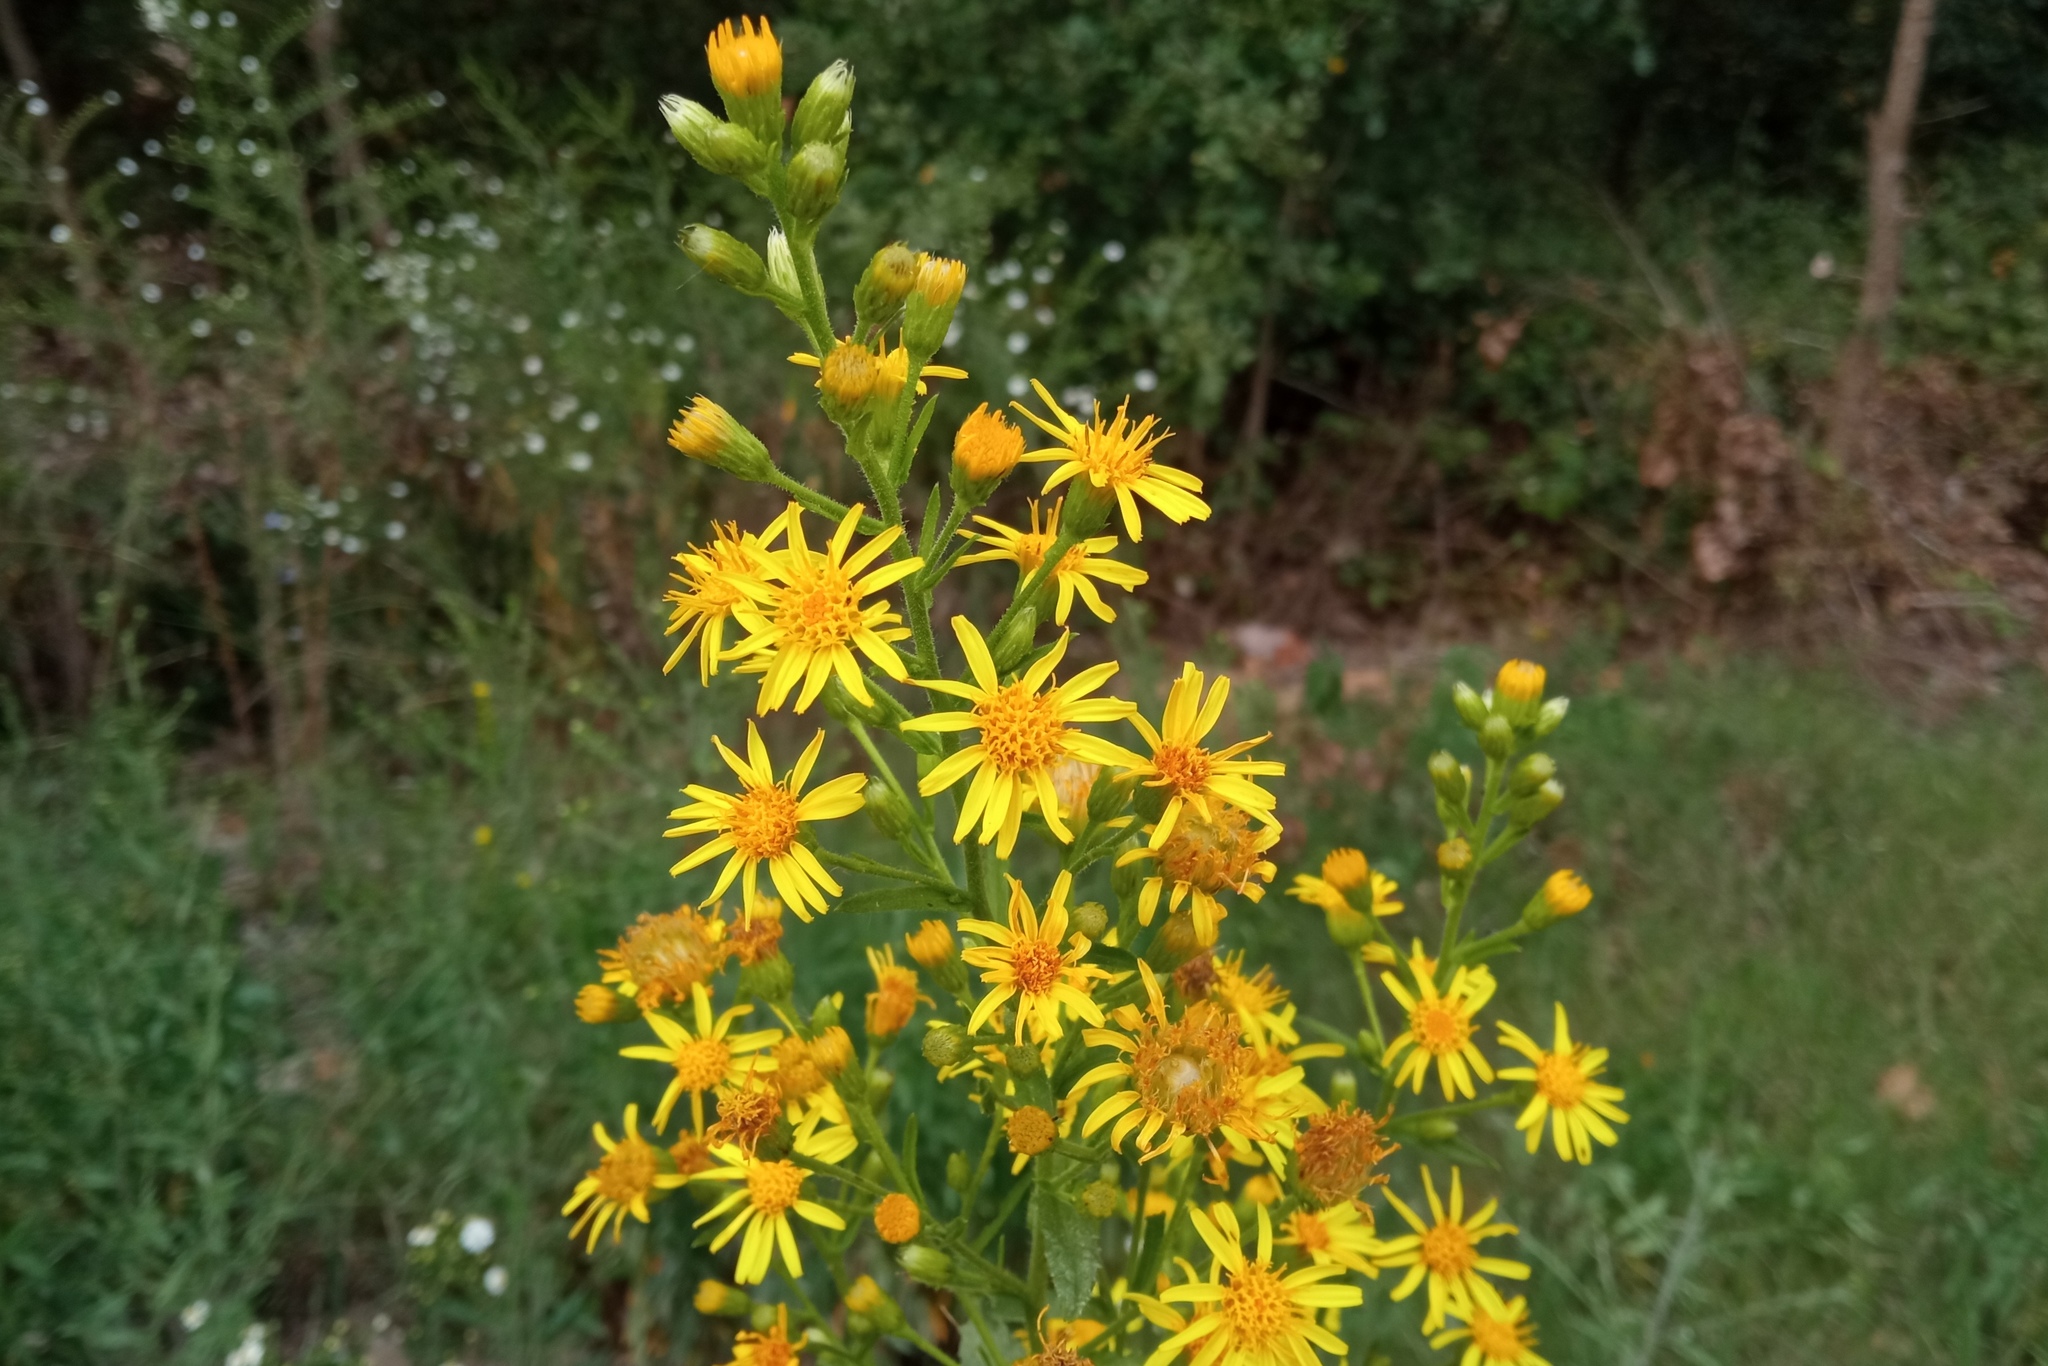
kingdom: Plantae
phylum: Tracheophyta
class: Magnoliopsida
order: Asterales
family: Asteraceae
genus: Dittrichia
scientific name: Dittrichia viscosa
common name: Woody fleabane
